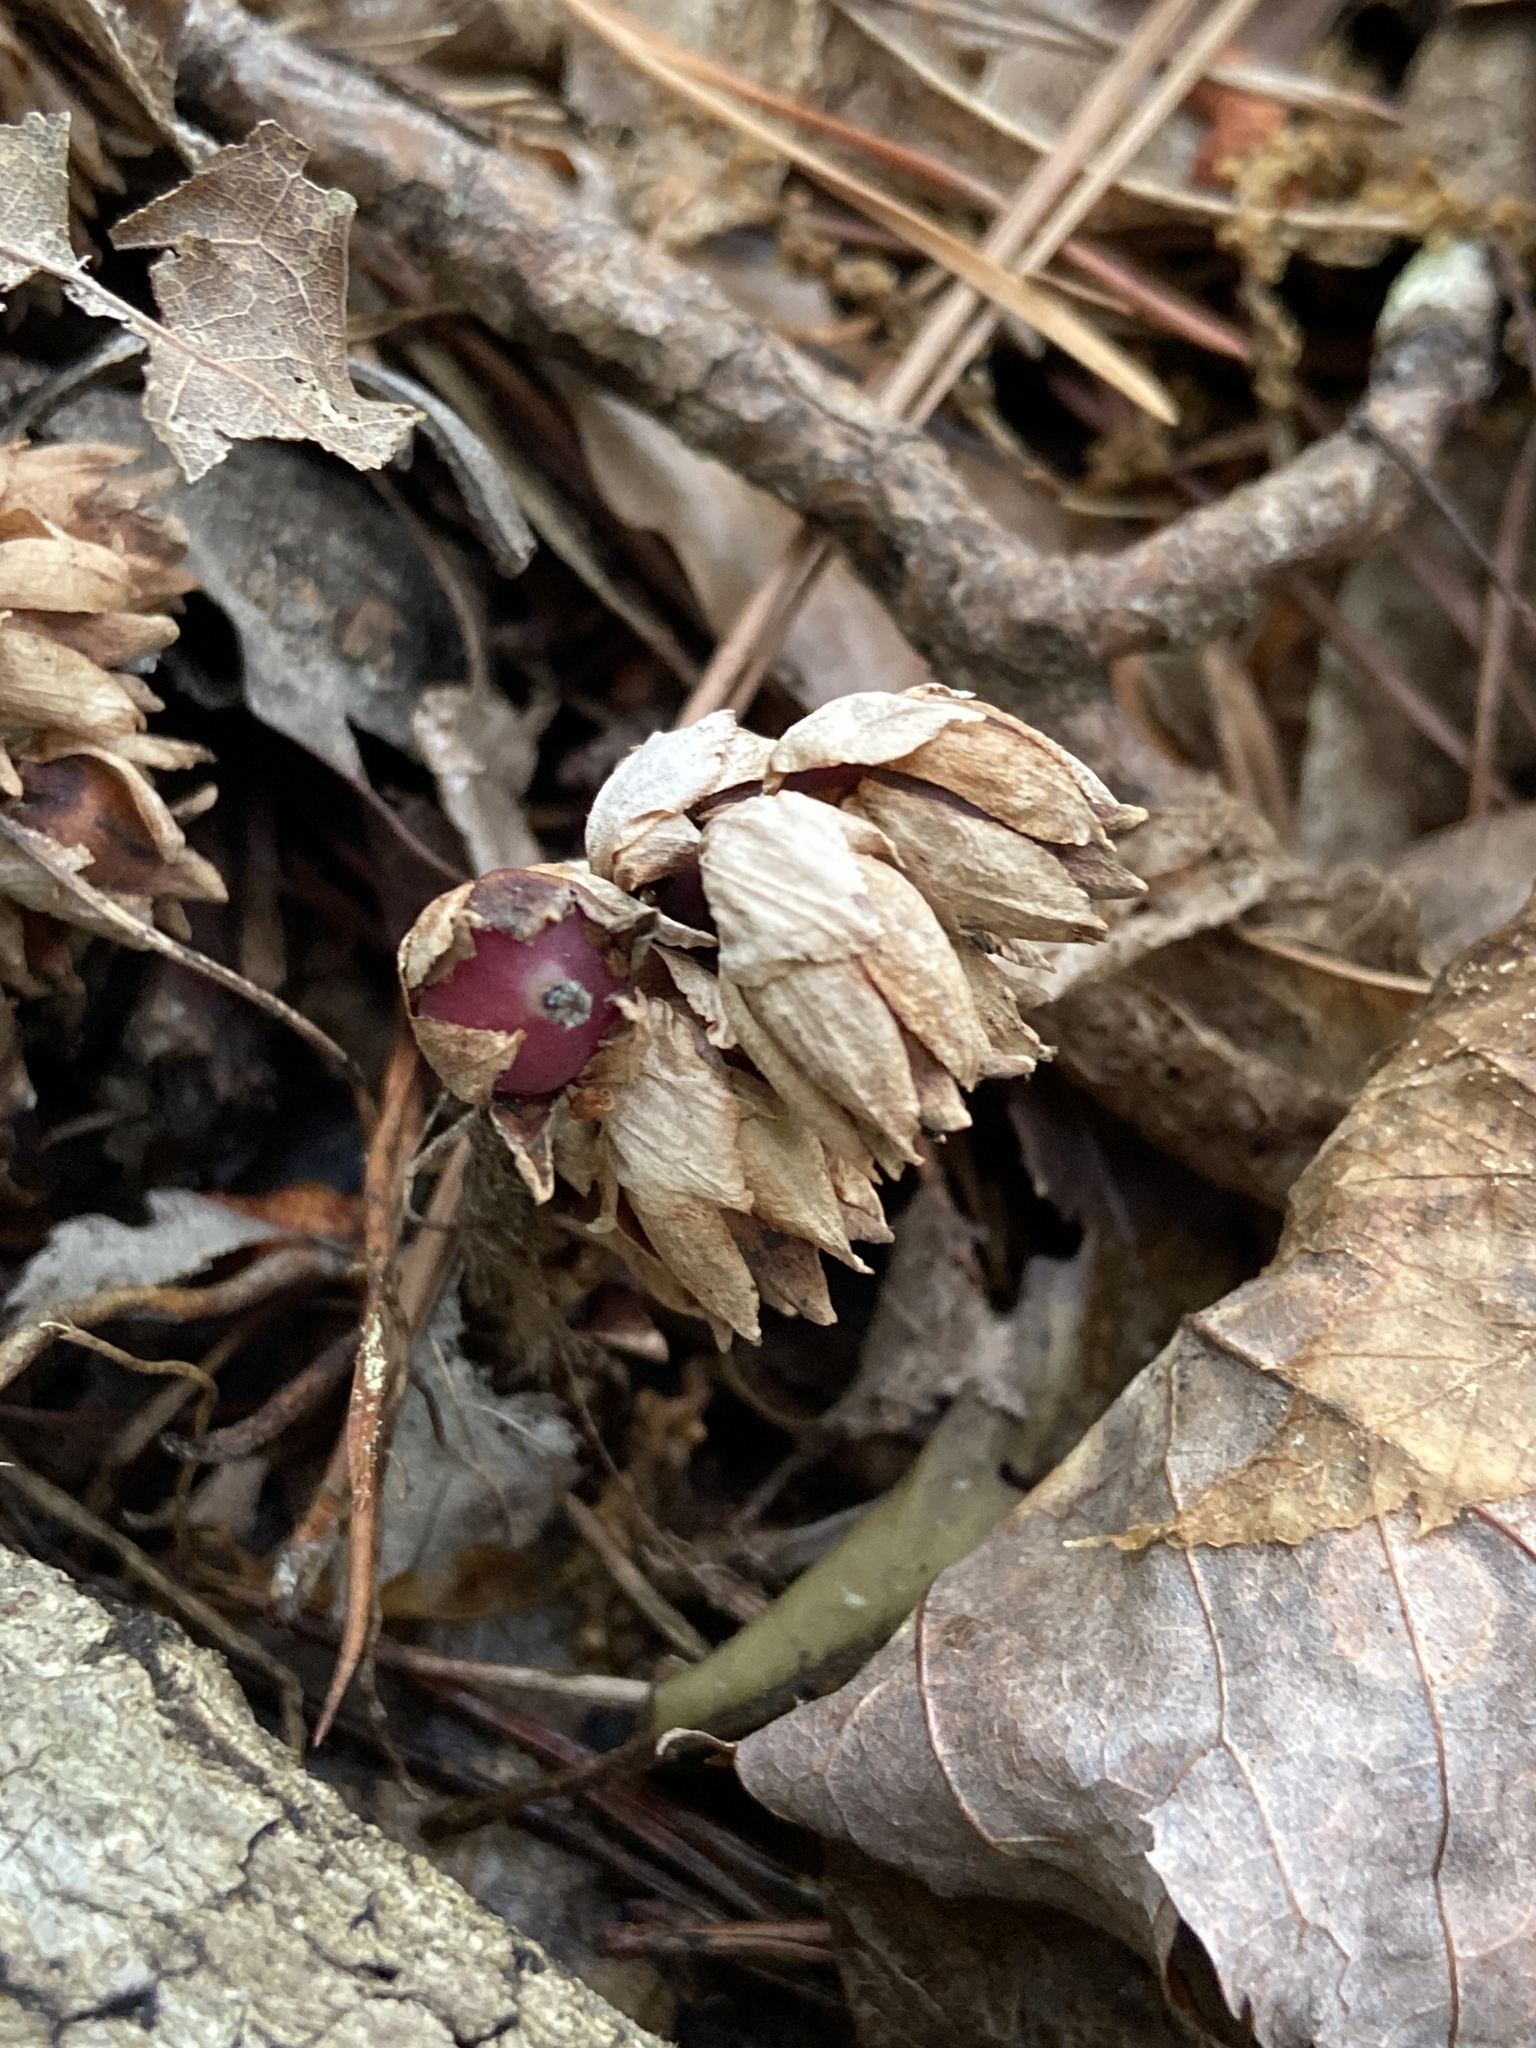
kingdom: Plantae
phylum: Tracheophyta
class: Magnoliopsida
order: Ericales
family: Ericaceae
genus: Monotropsis
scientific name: Monotropsis odorata
